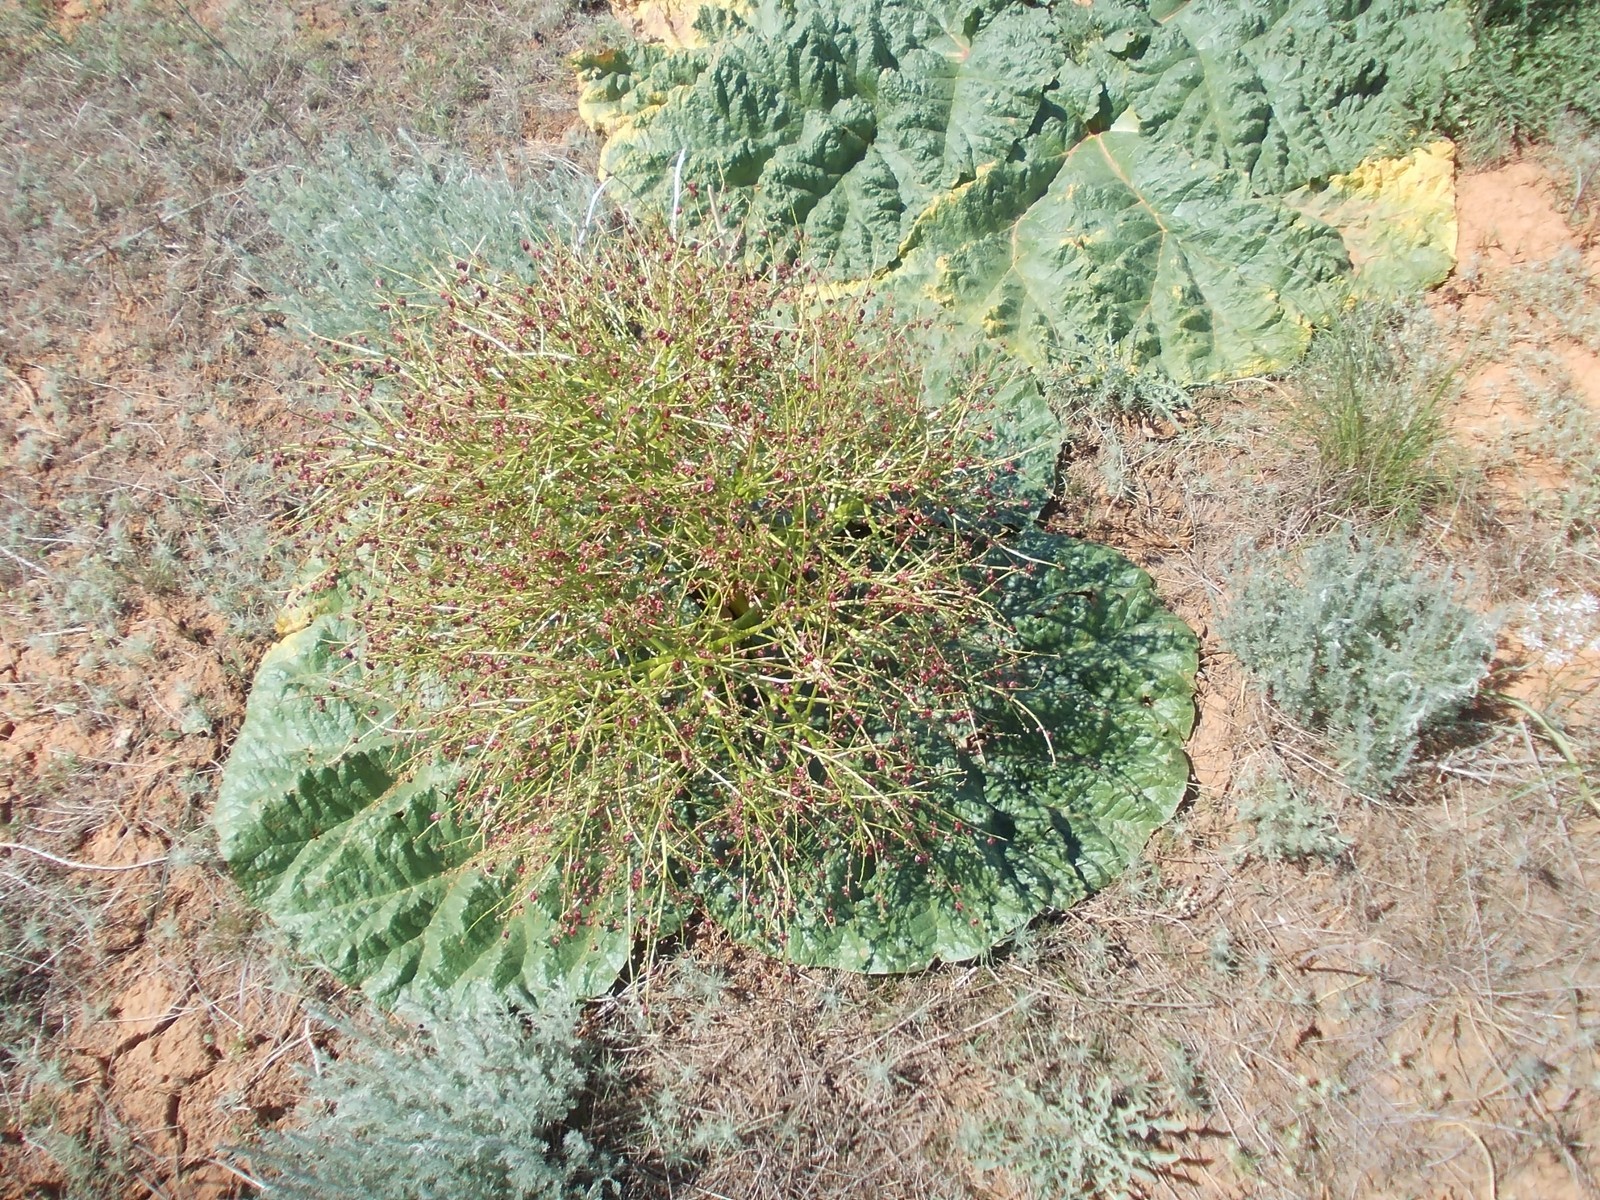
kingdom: Plantae
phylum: Tracheophyta
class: Magnoliopsida
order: Caryophyllales
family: Polygonaceae
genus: Rheum
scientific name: Rheum tataricum
